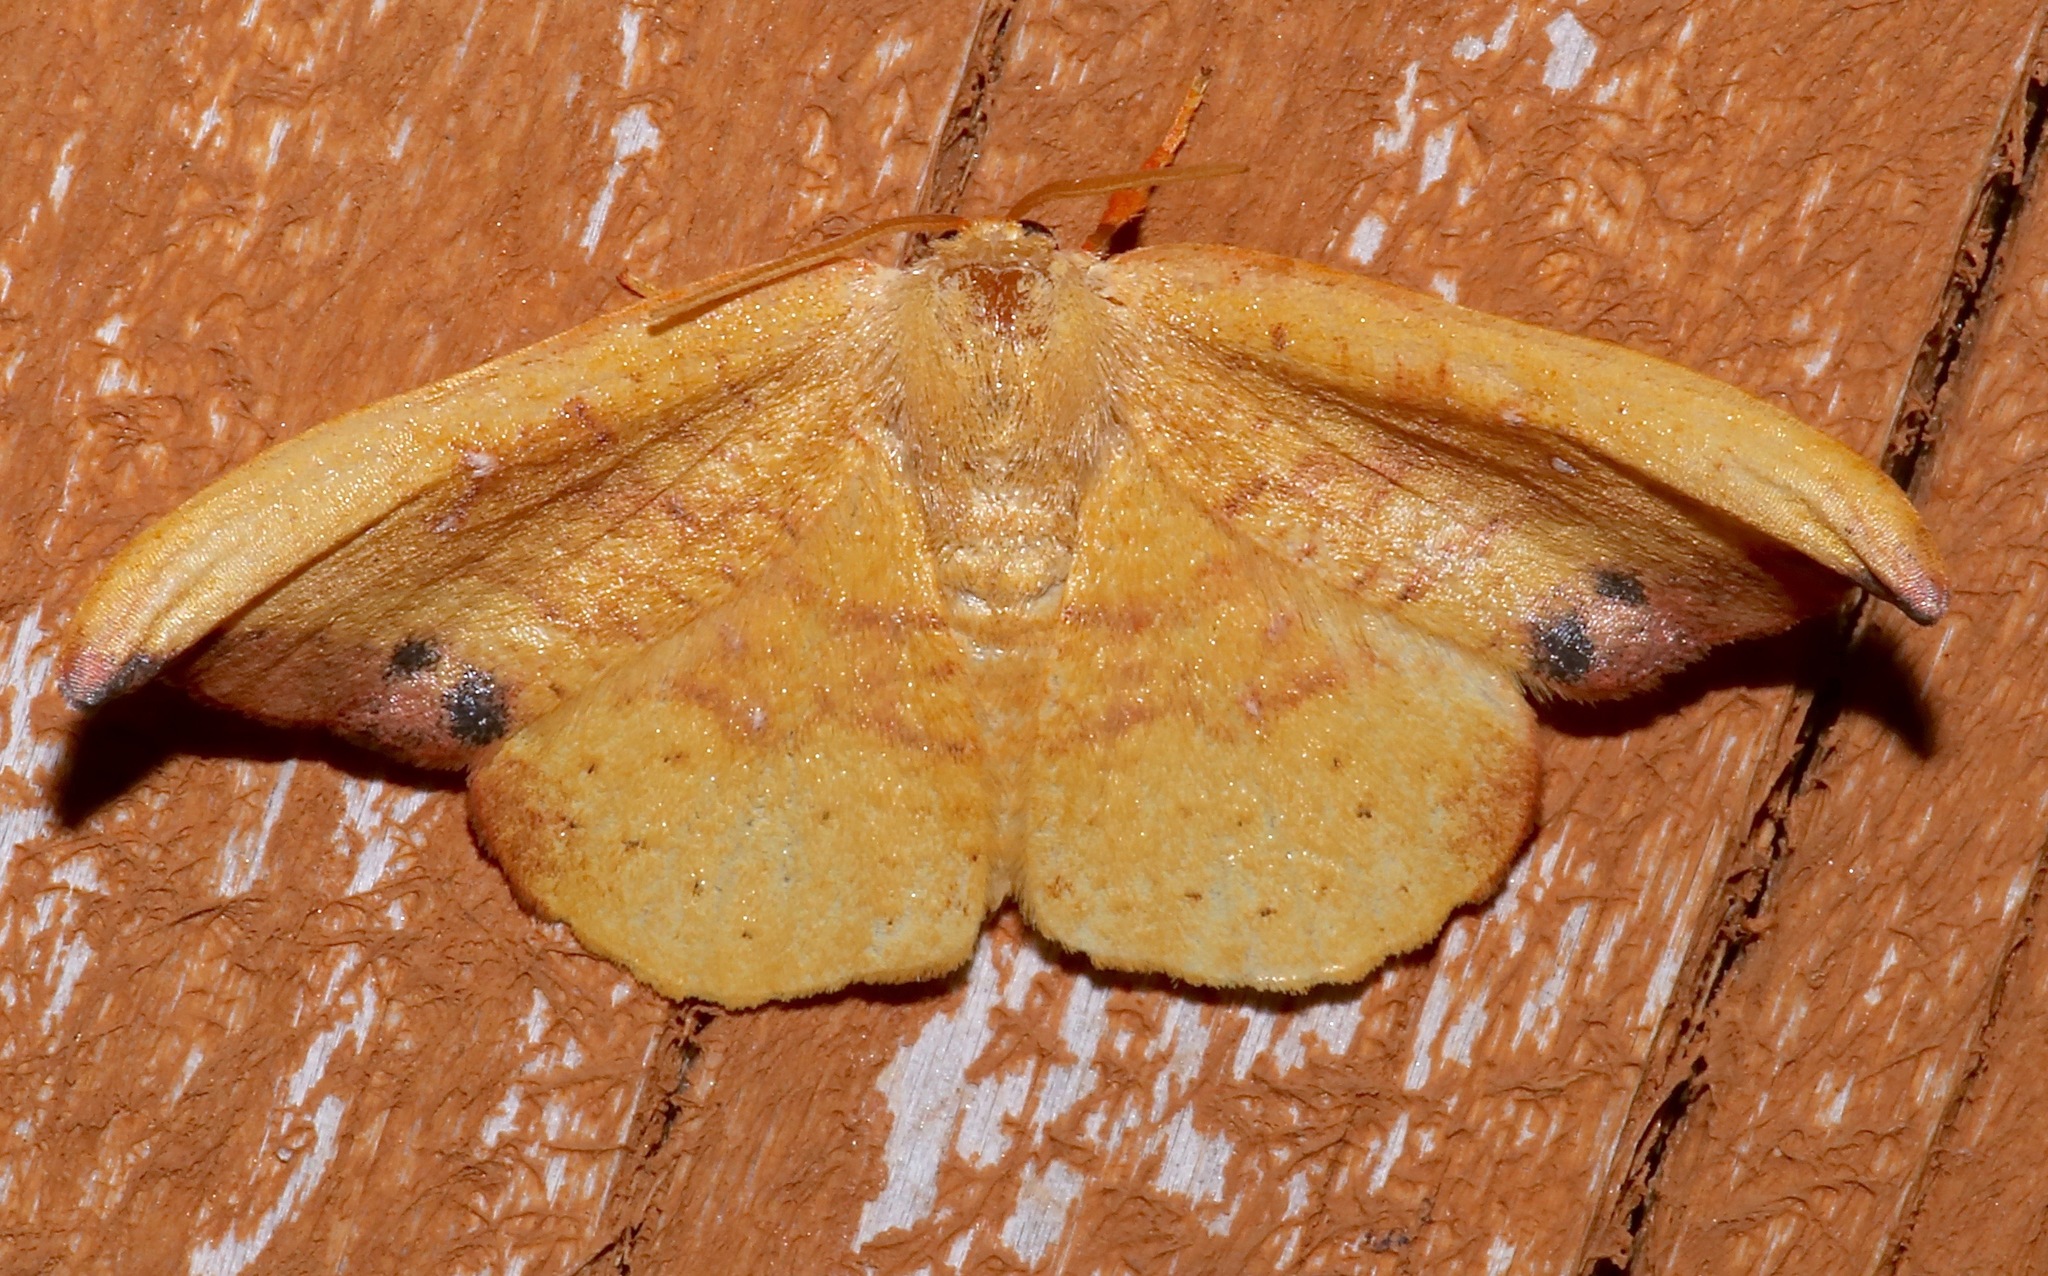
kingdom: Animalia
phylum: Arthropoda
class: Insecta
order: Lepidoptera
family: Drepanidae
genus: Oreta
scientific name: Oreta rosea
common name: Rose hooktip
